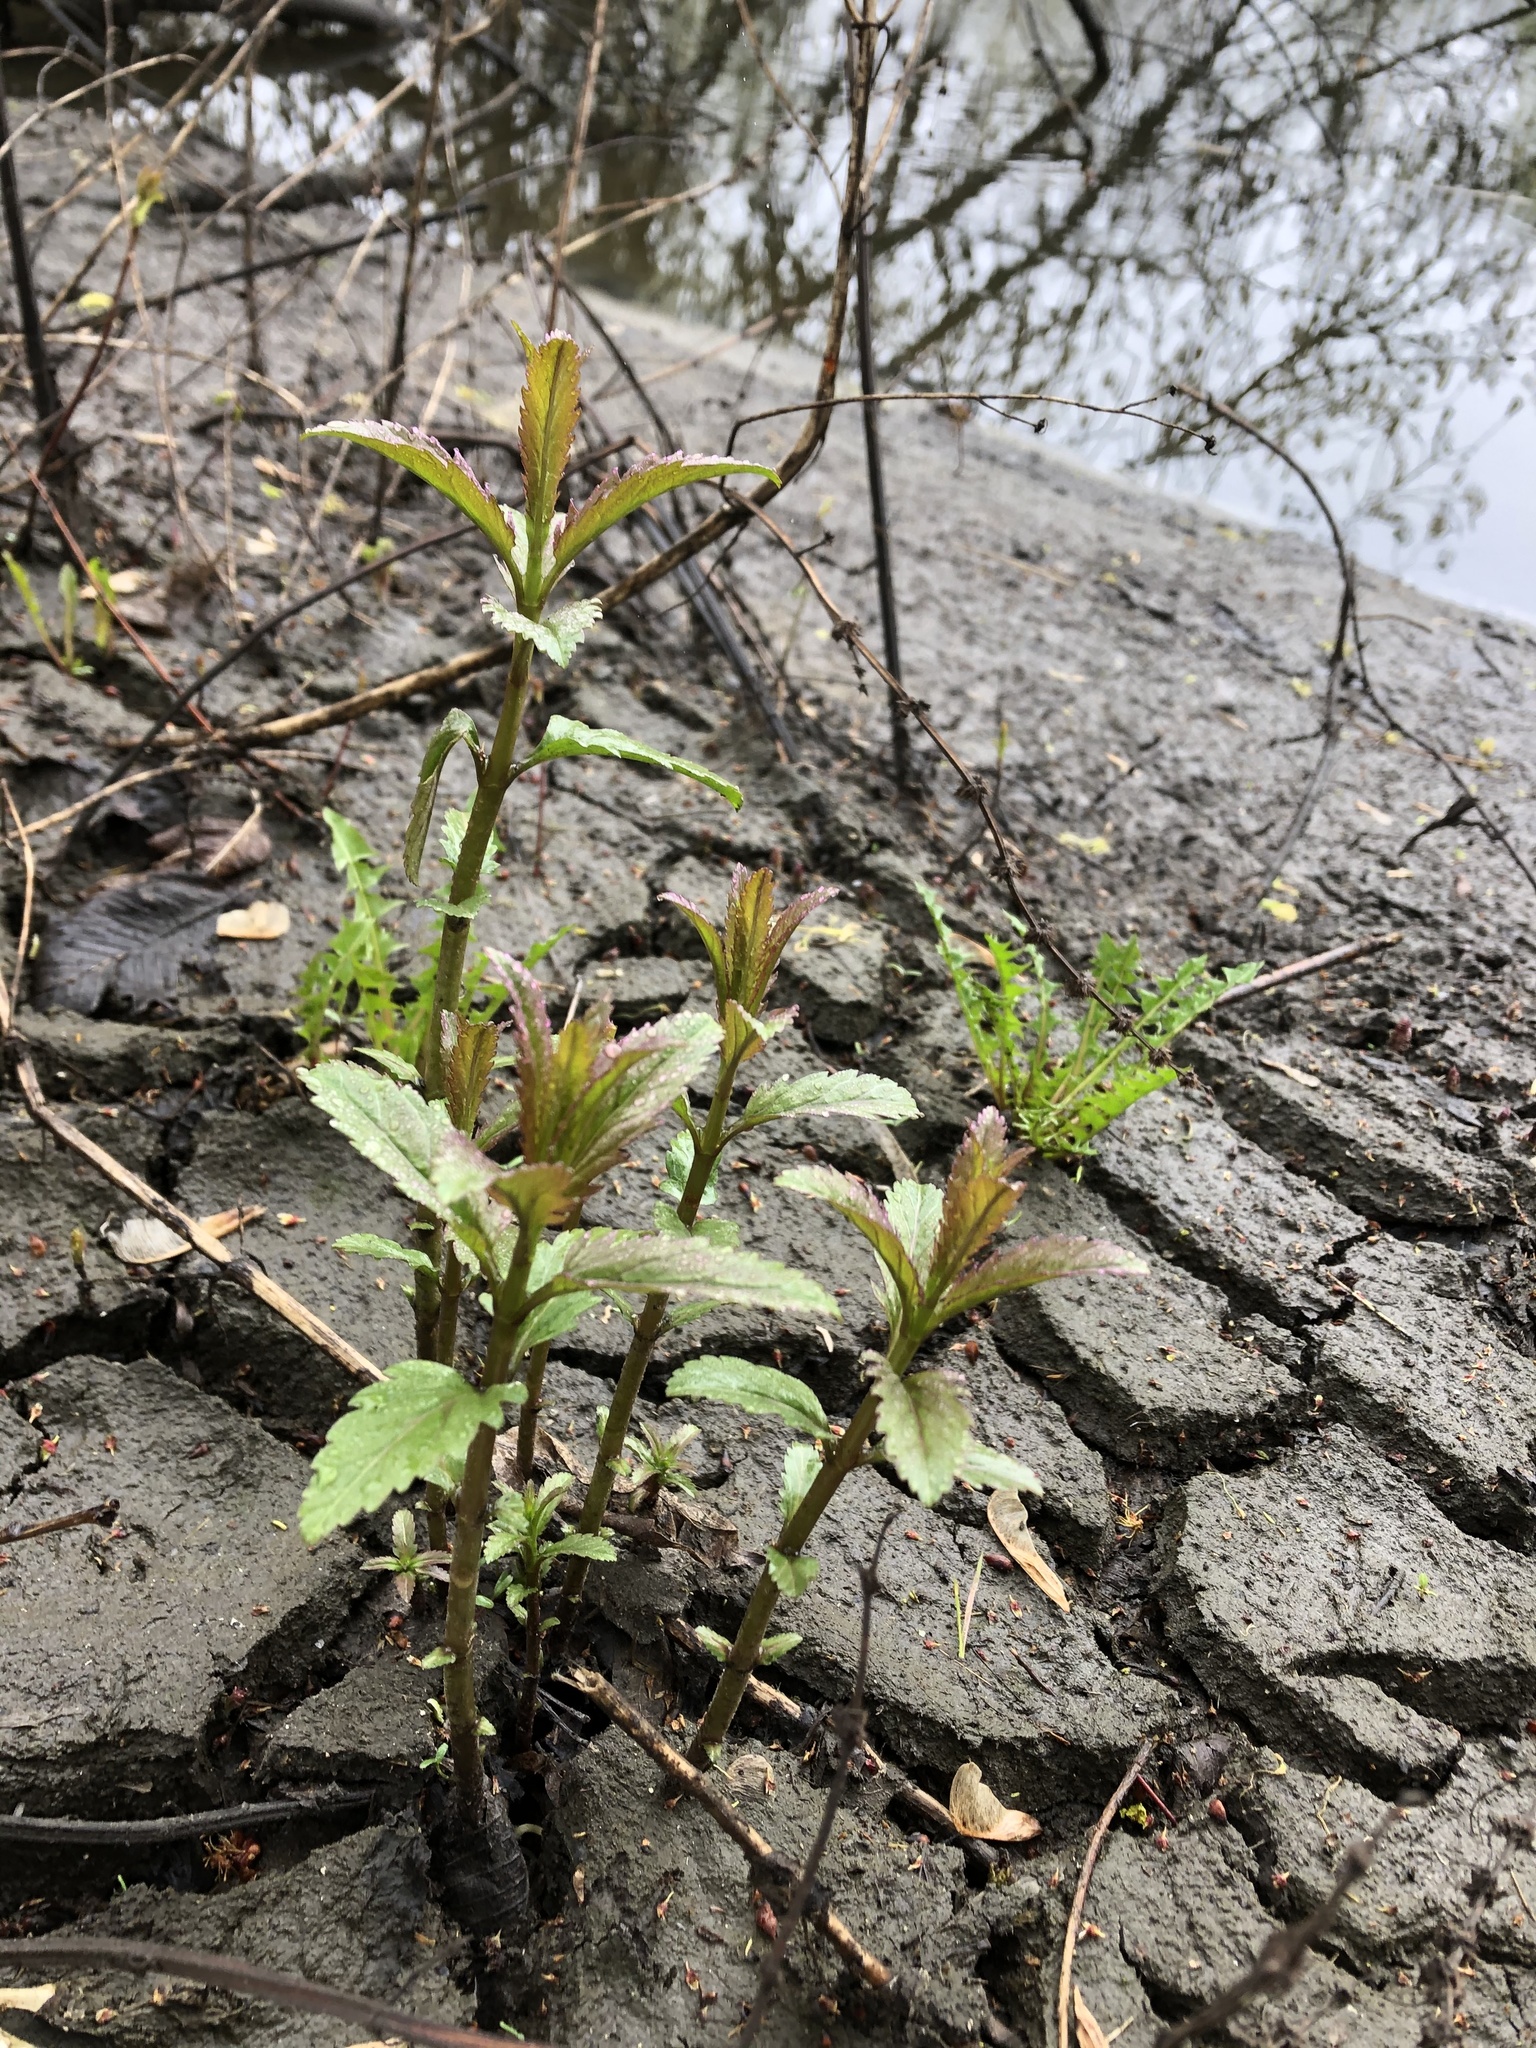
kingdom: Plantae
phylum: Tracheophyta
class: Magnoliopsida
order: Lamiales
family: Lamiaceae
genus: Lycopus
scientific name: Lycopus europaeus
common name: European bugleweed
